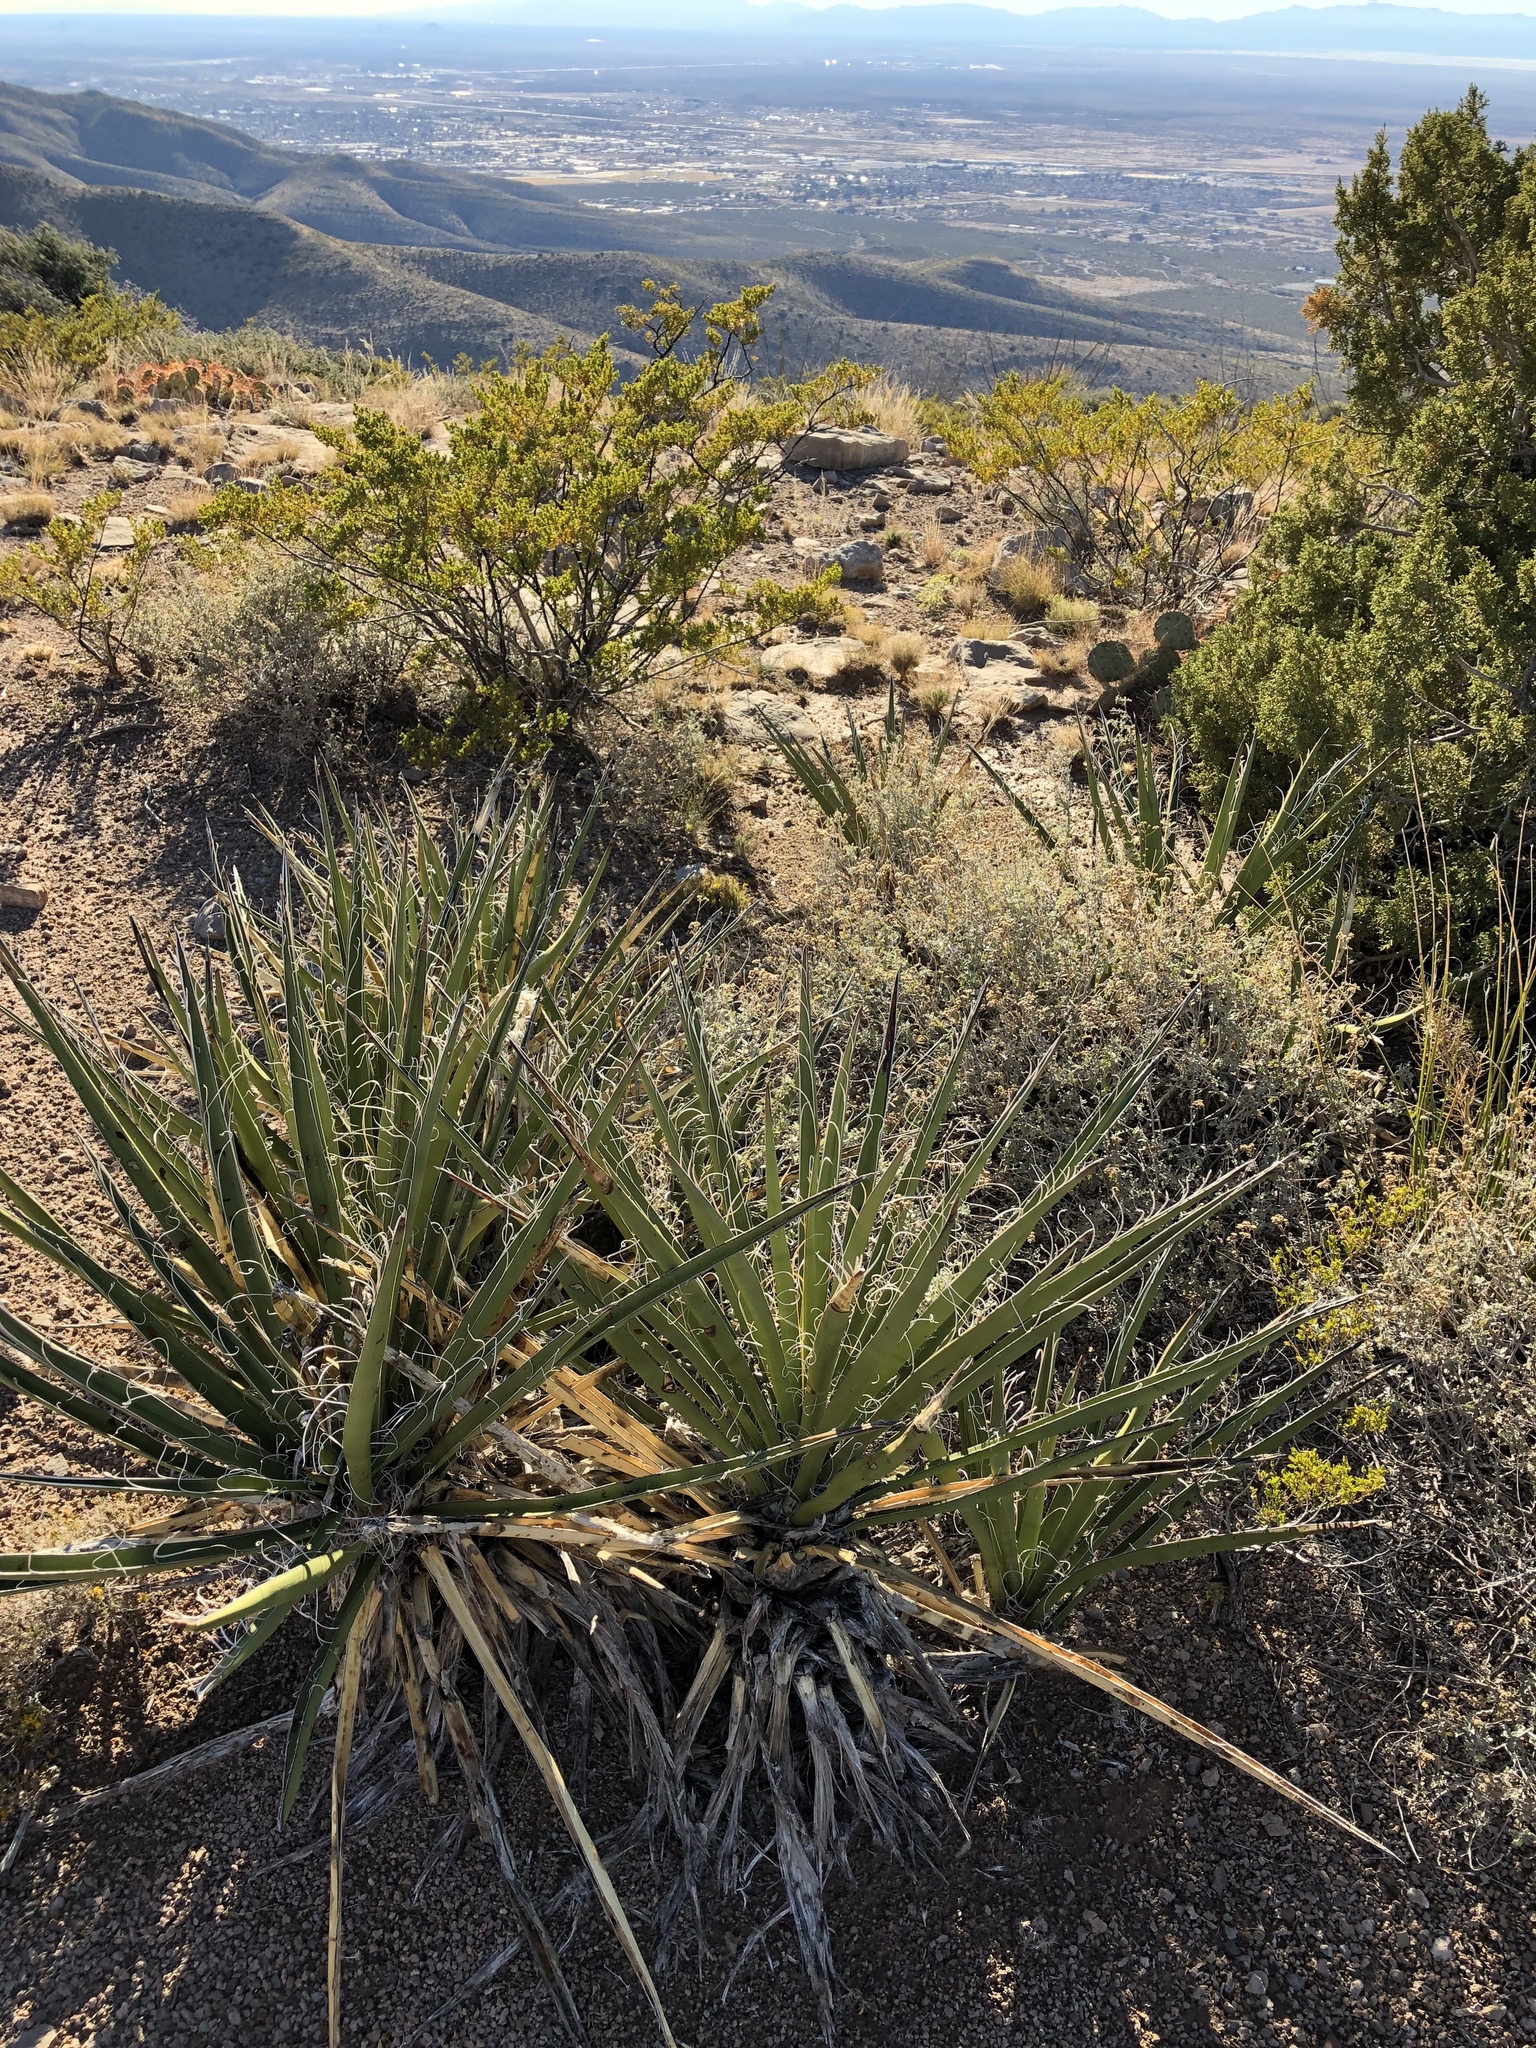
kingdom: Plantae
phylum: Tracheophyta
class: Liliopsida
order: Asparagales
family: Asparagaceae
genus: Yucca
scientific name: Yucca baccata
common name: Banana yucca
